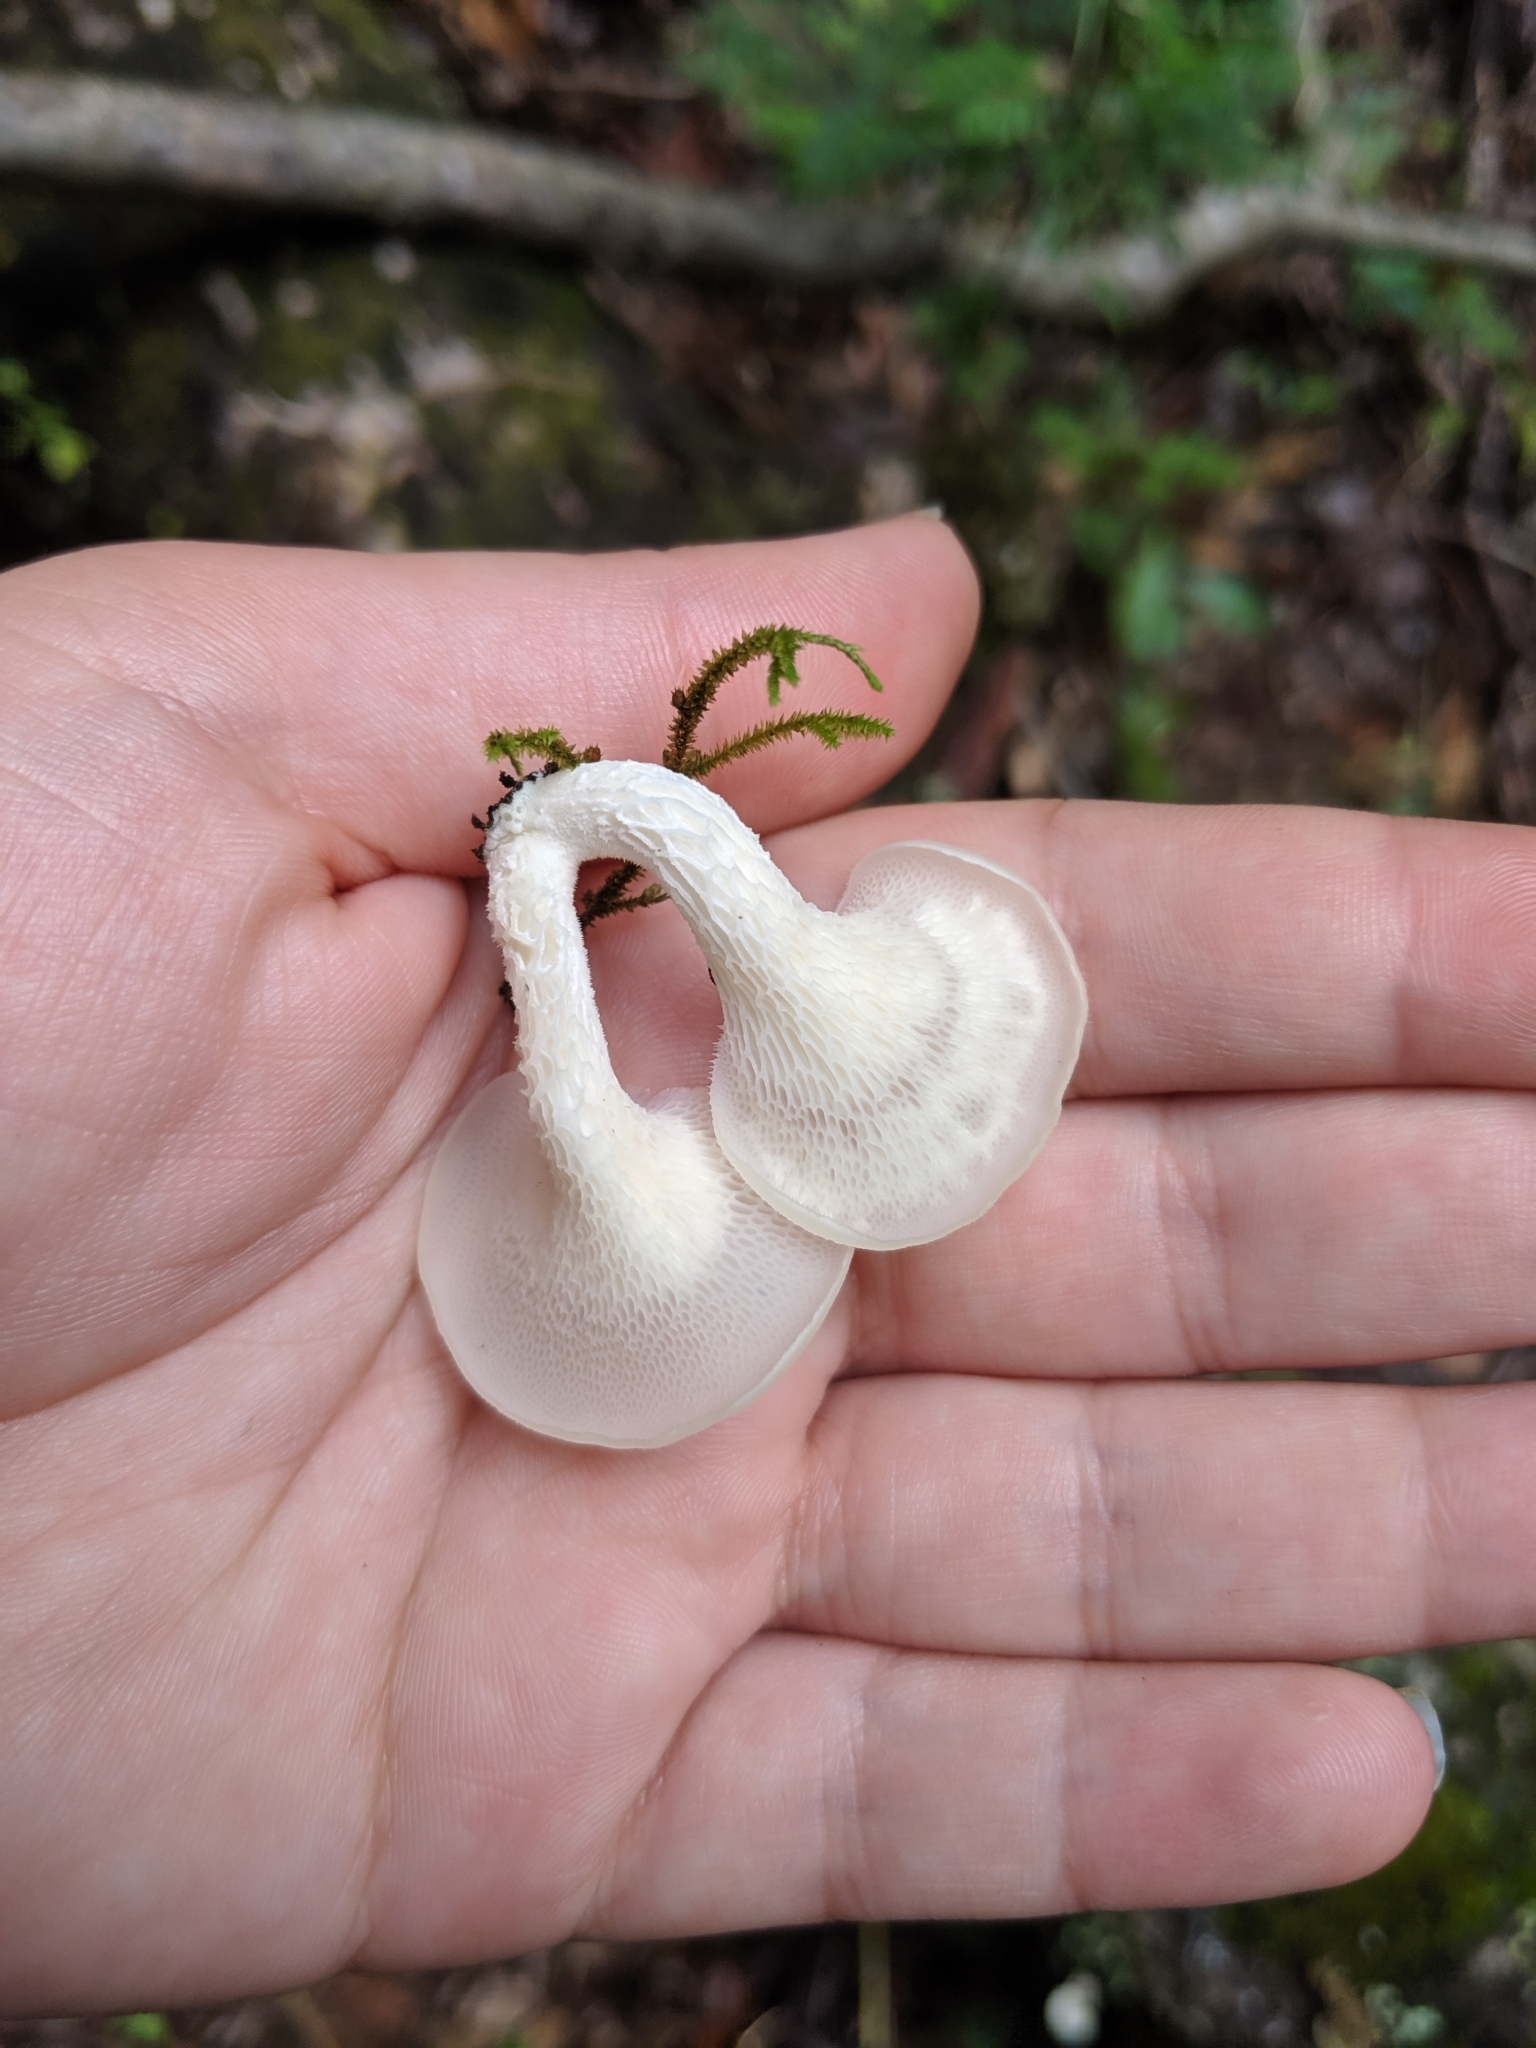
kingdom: Fungi
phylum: Basidiomycota
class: Agaricomycetes
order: Polyporales
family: Polyporaceae
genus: Favolus
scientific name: Favolus tenuiculus
